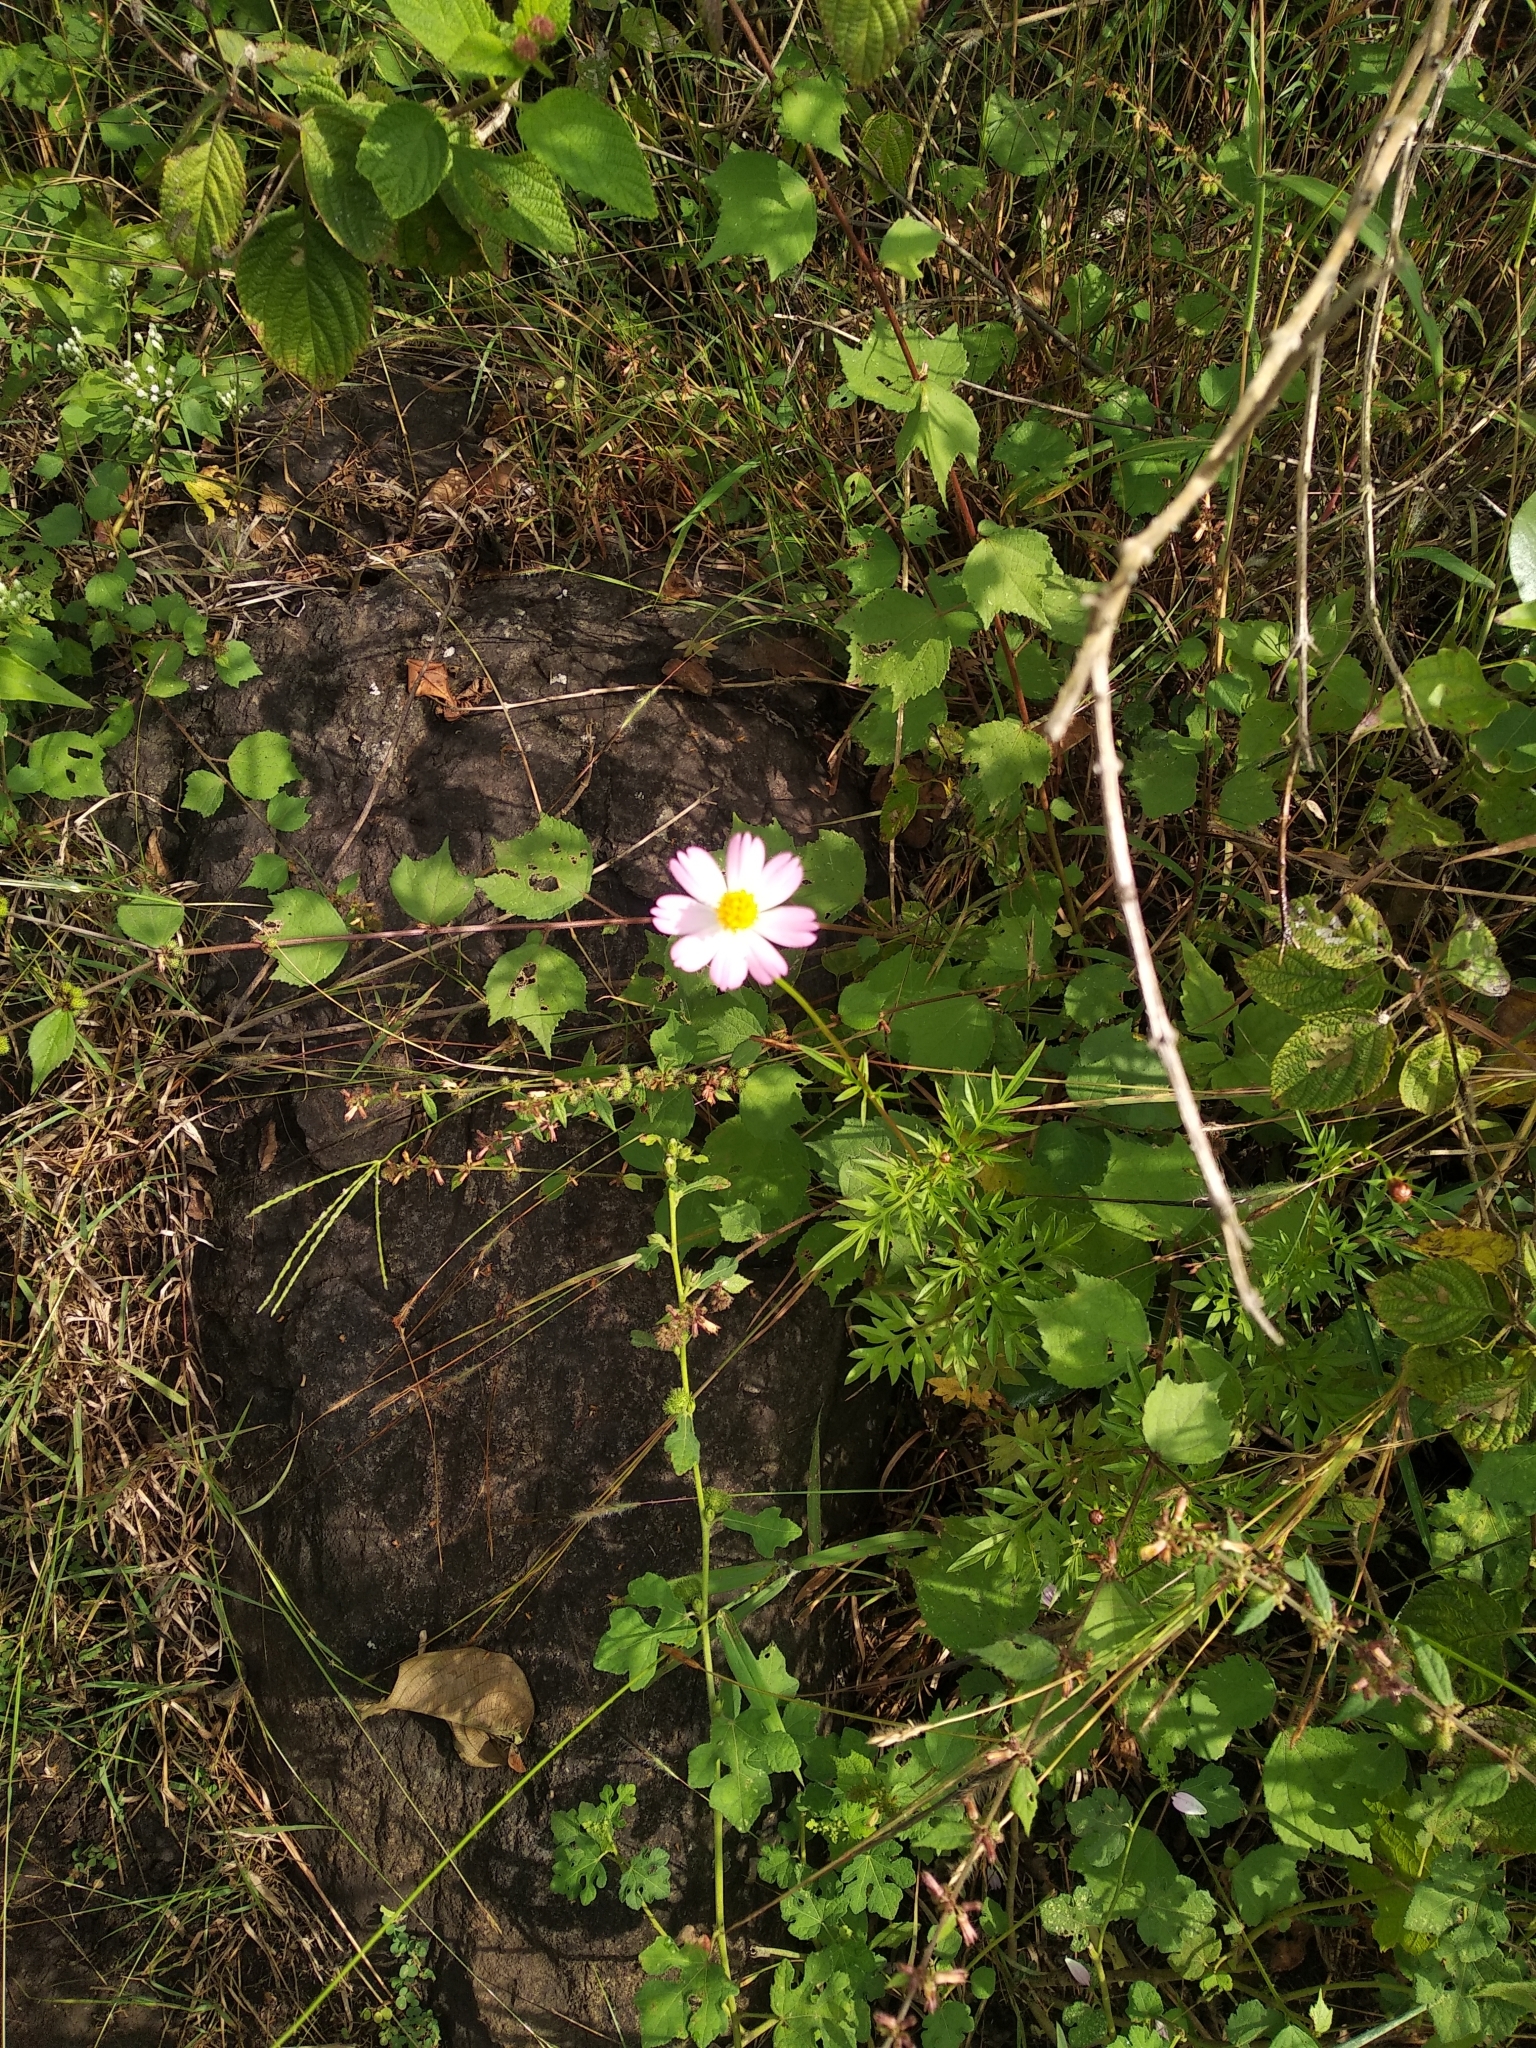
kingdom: Plantae
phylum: Tracheophyta
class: Magnoliopsida
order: Asterales
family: Asteraceae
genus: Cosmos
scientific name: Cosmos caudatus
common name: Wild cosmos
